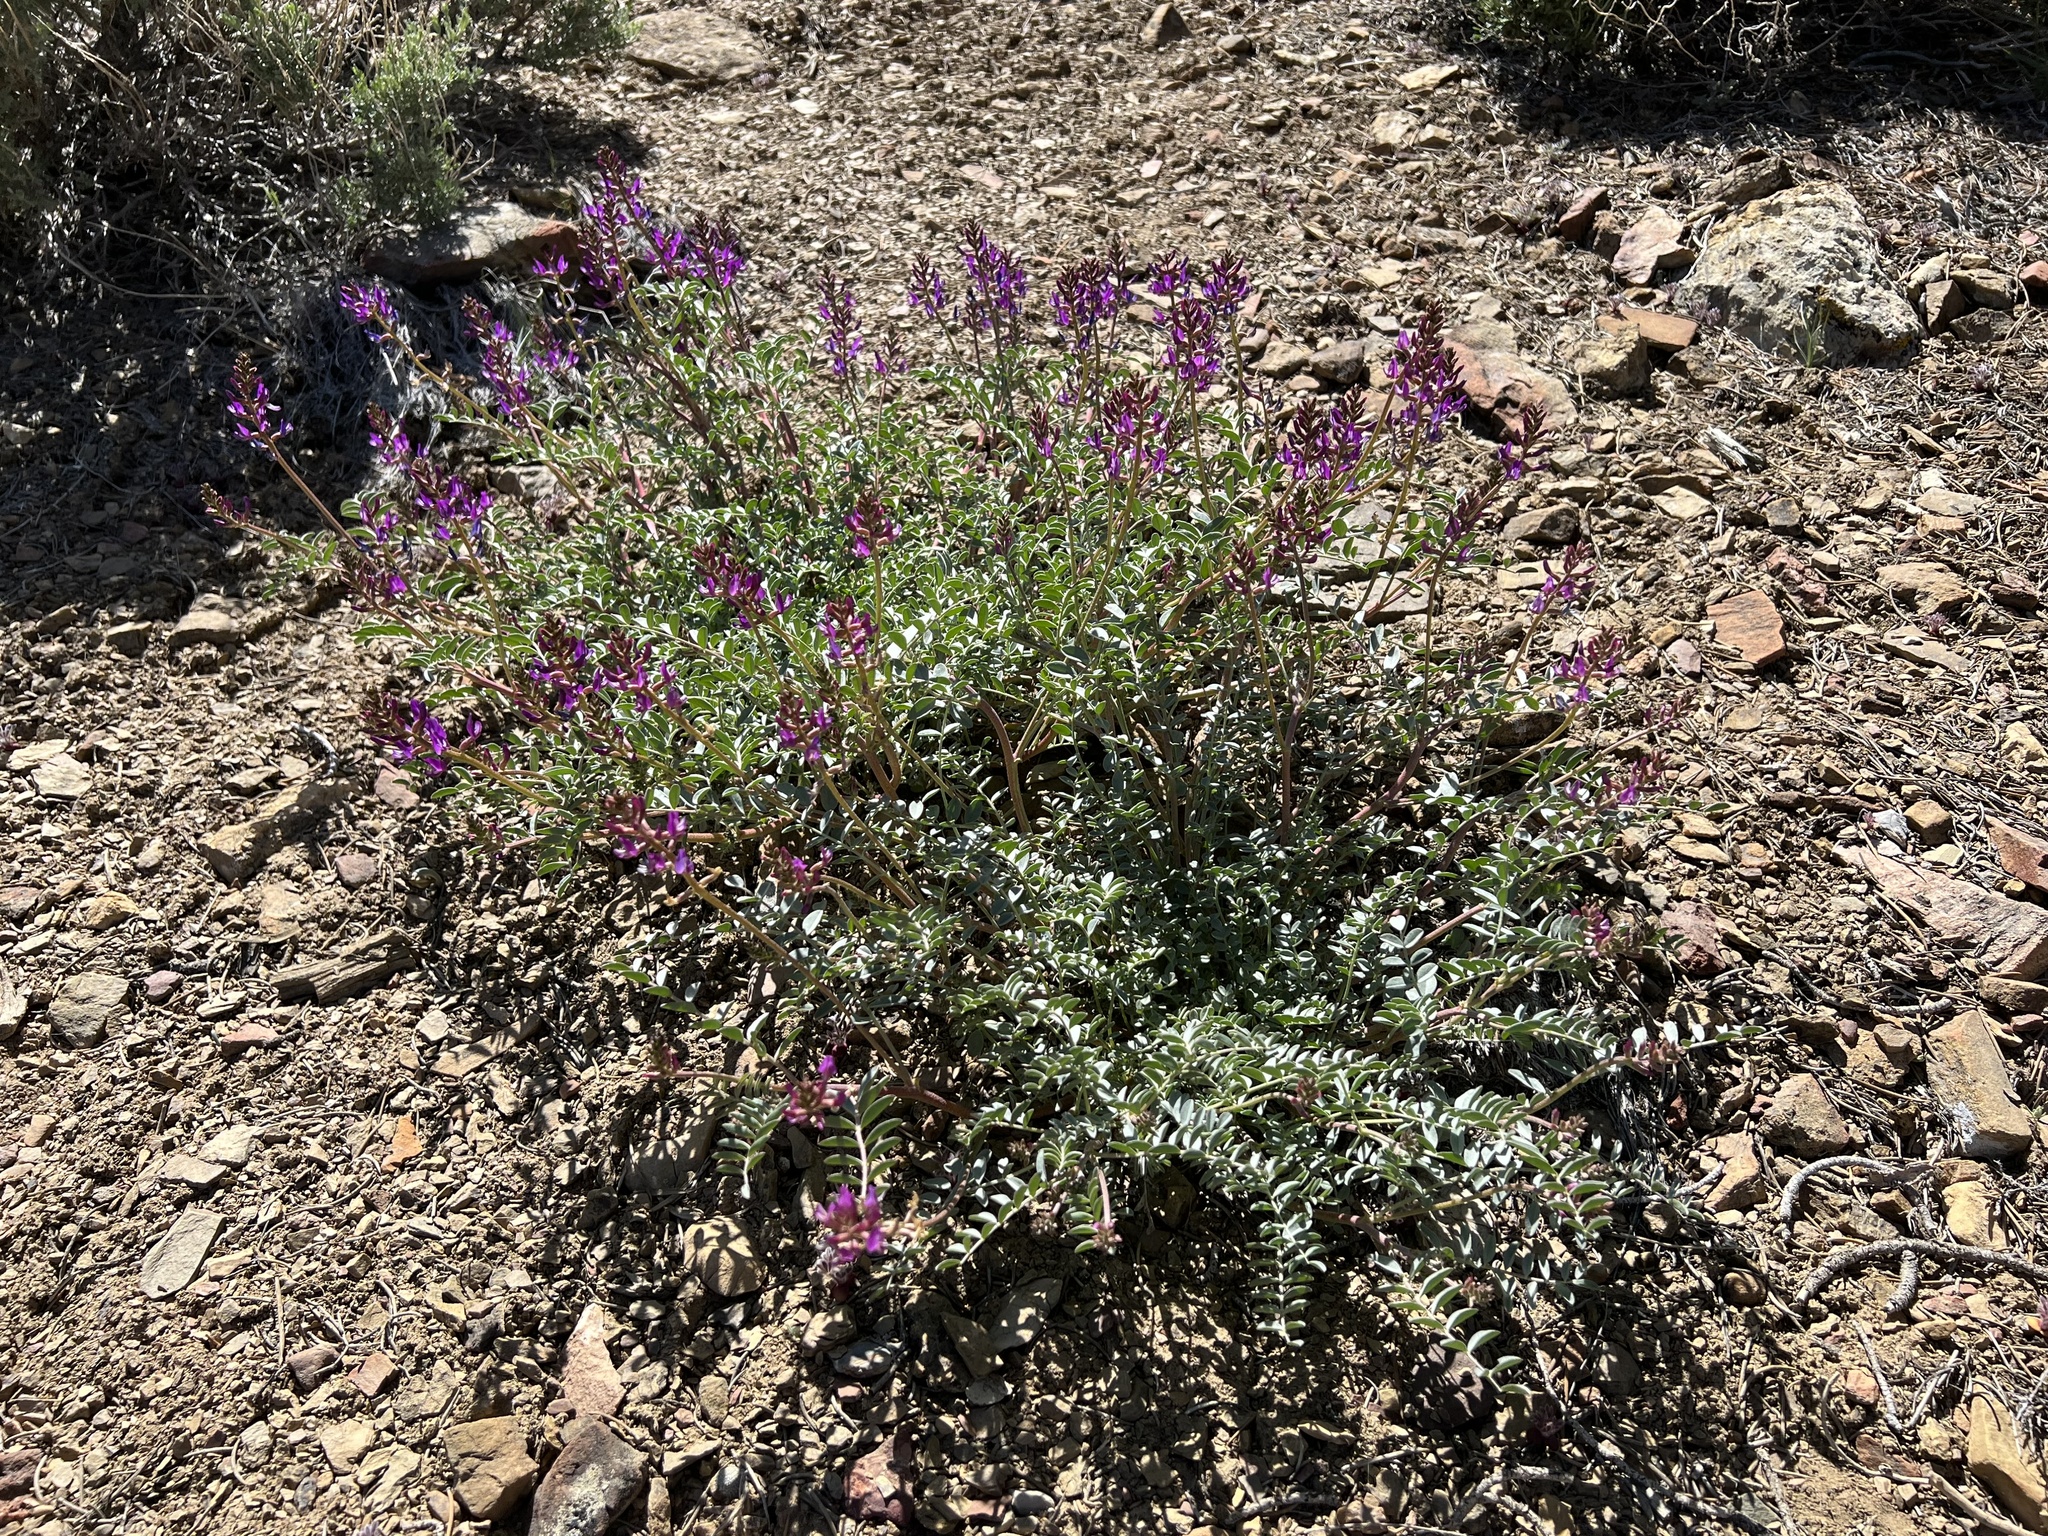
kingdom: Plantae
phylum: Tracheophyta
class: Magnoliopsida
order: Fabales
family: Fabaceae
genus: Astragalus
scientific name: Astragalus lentiginosus
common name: Freckled milkvetch
